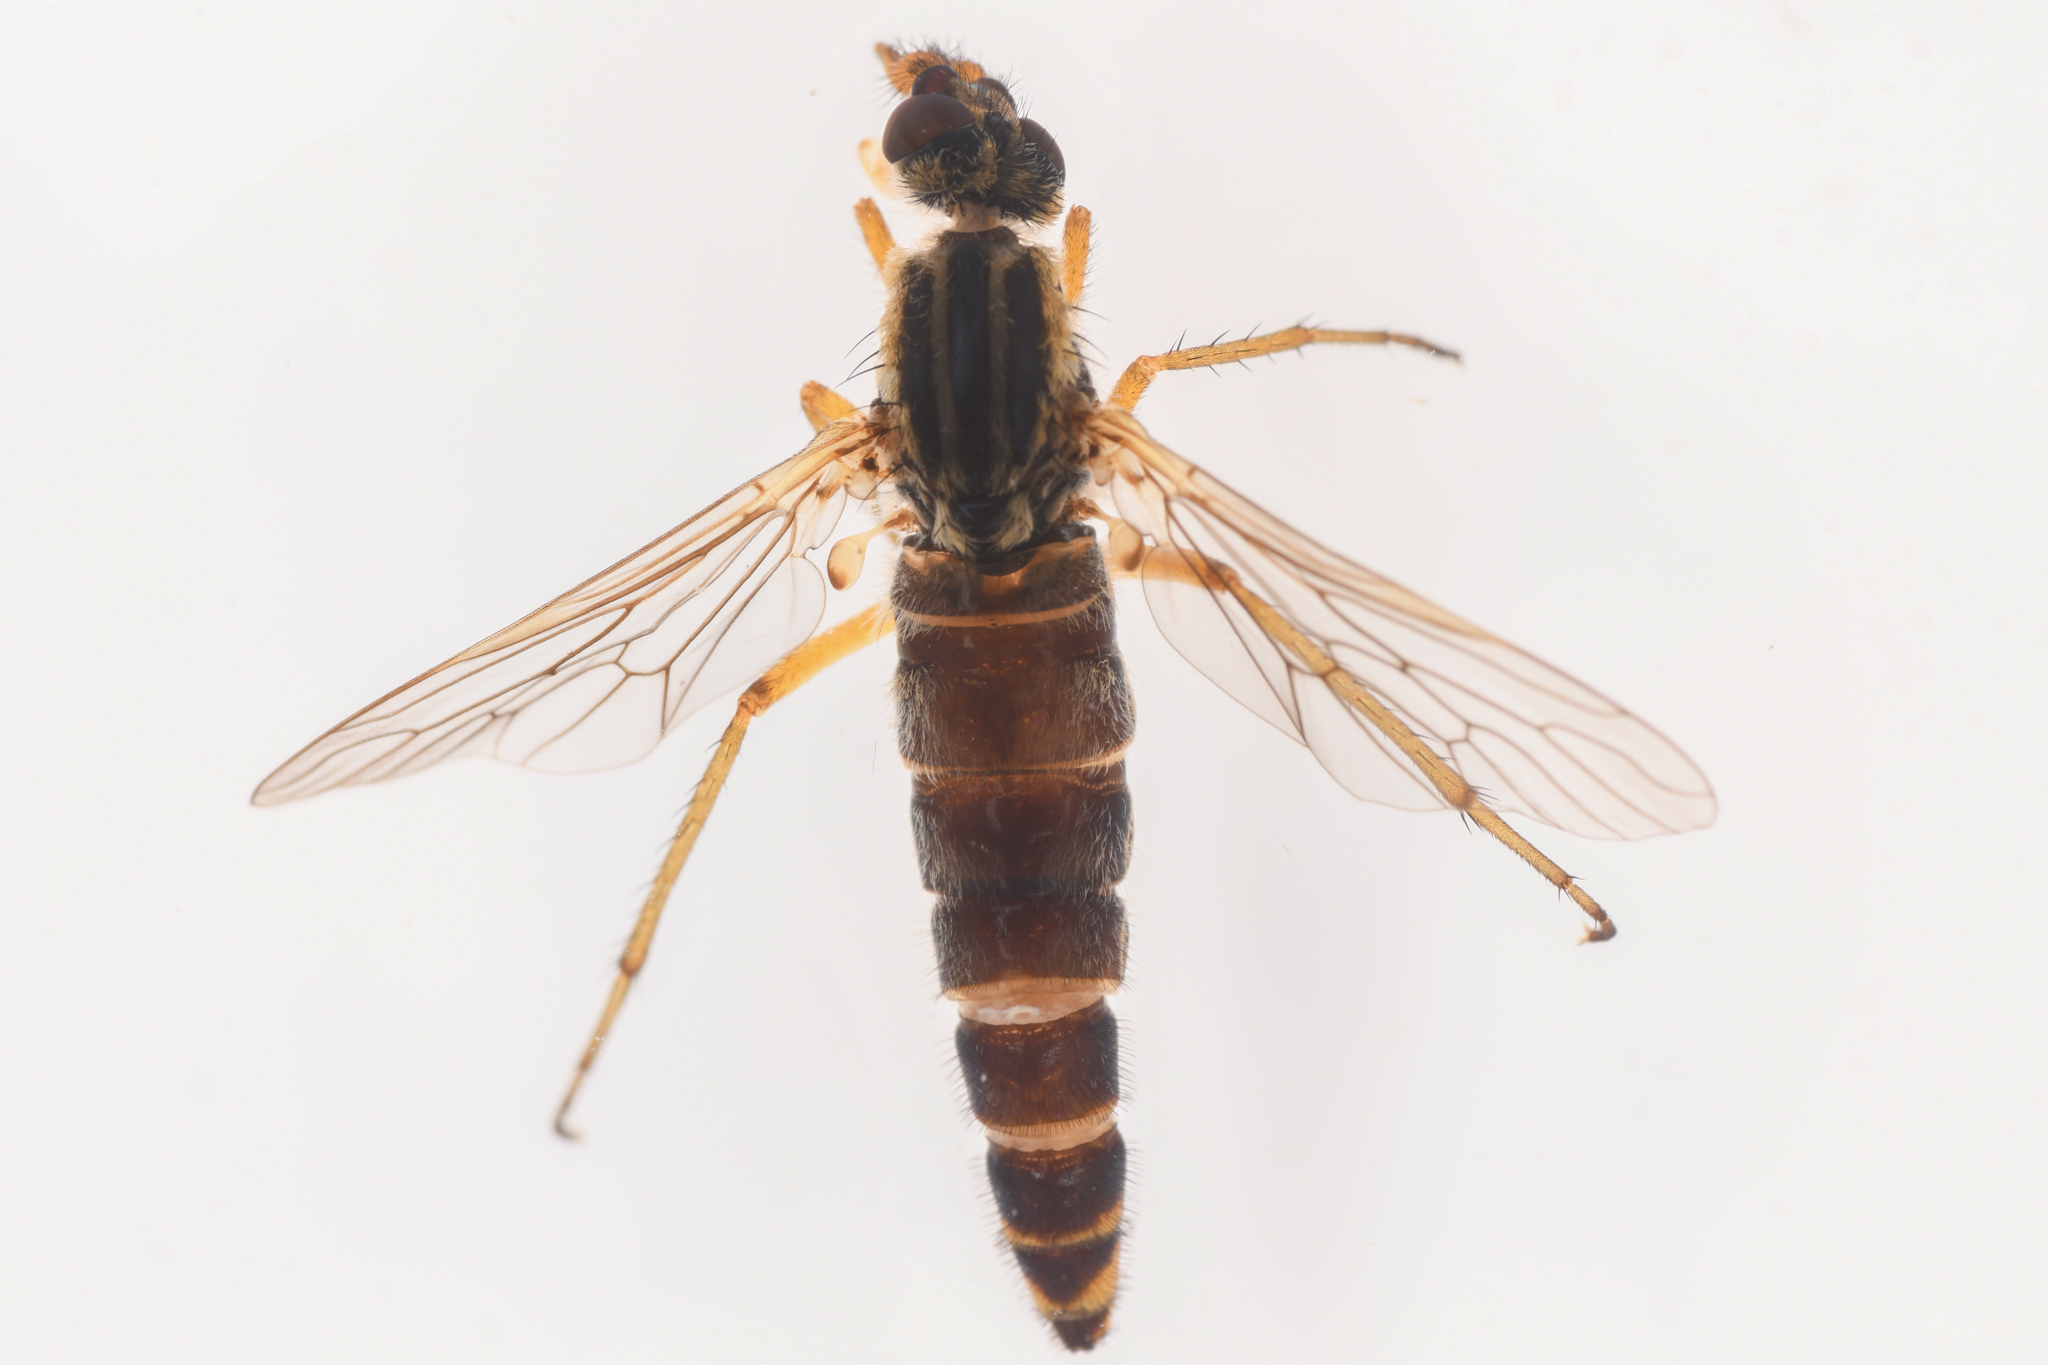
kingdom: Animalia
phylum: Arthropoda
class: Insecta
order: Diptera
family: Therevidae
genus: Nebritus
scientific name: Nebritus pellucidus
